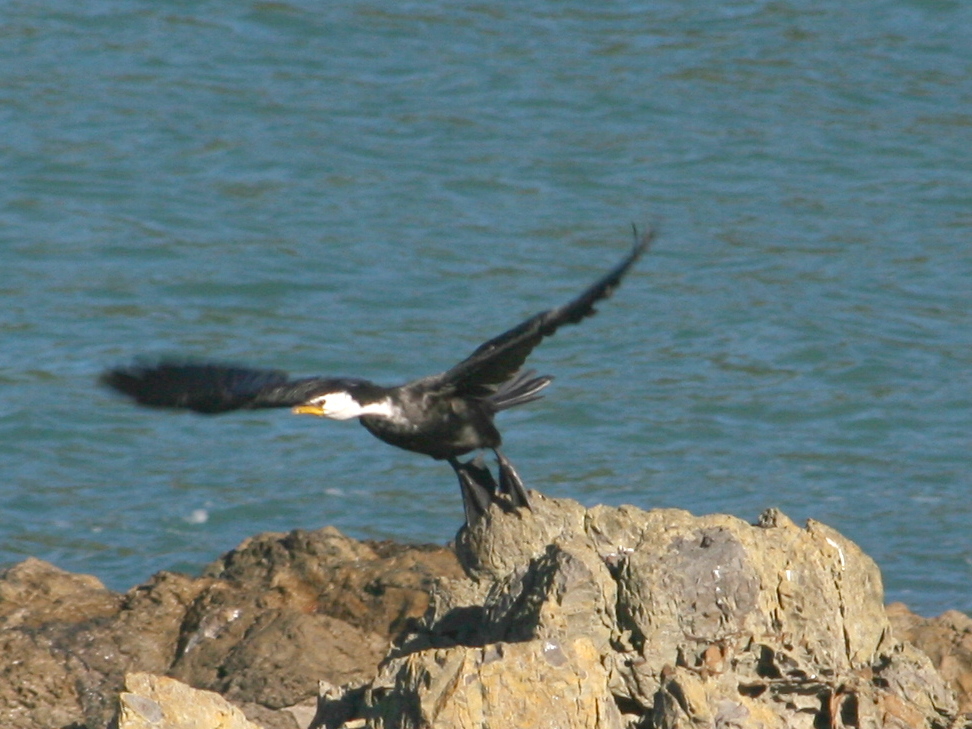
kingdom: Animalia
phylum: Chordata
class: Aves
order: Suliformes
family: Phalacrocoracidae
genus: Microcarbo
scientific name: Microcarbo melanoleucos
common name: Little pied cormorant
